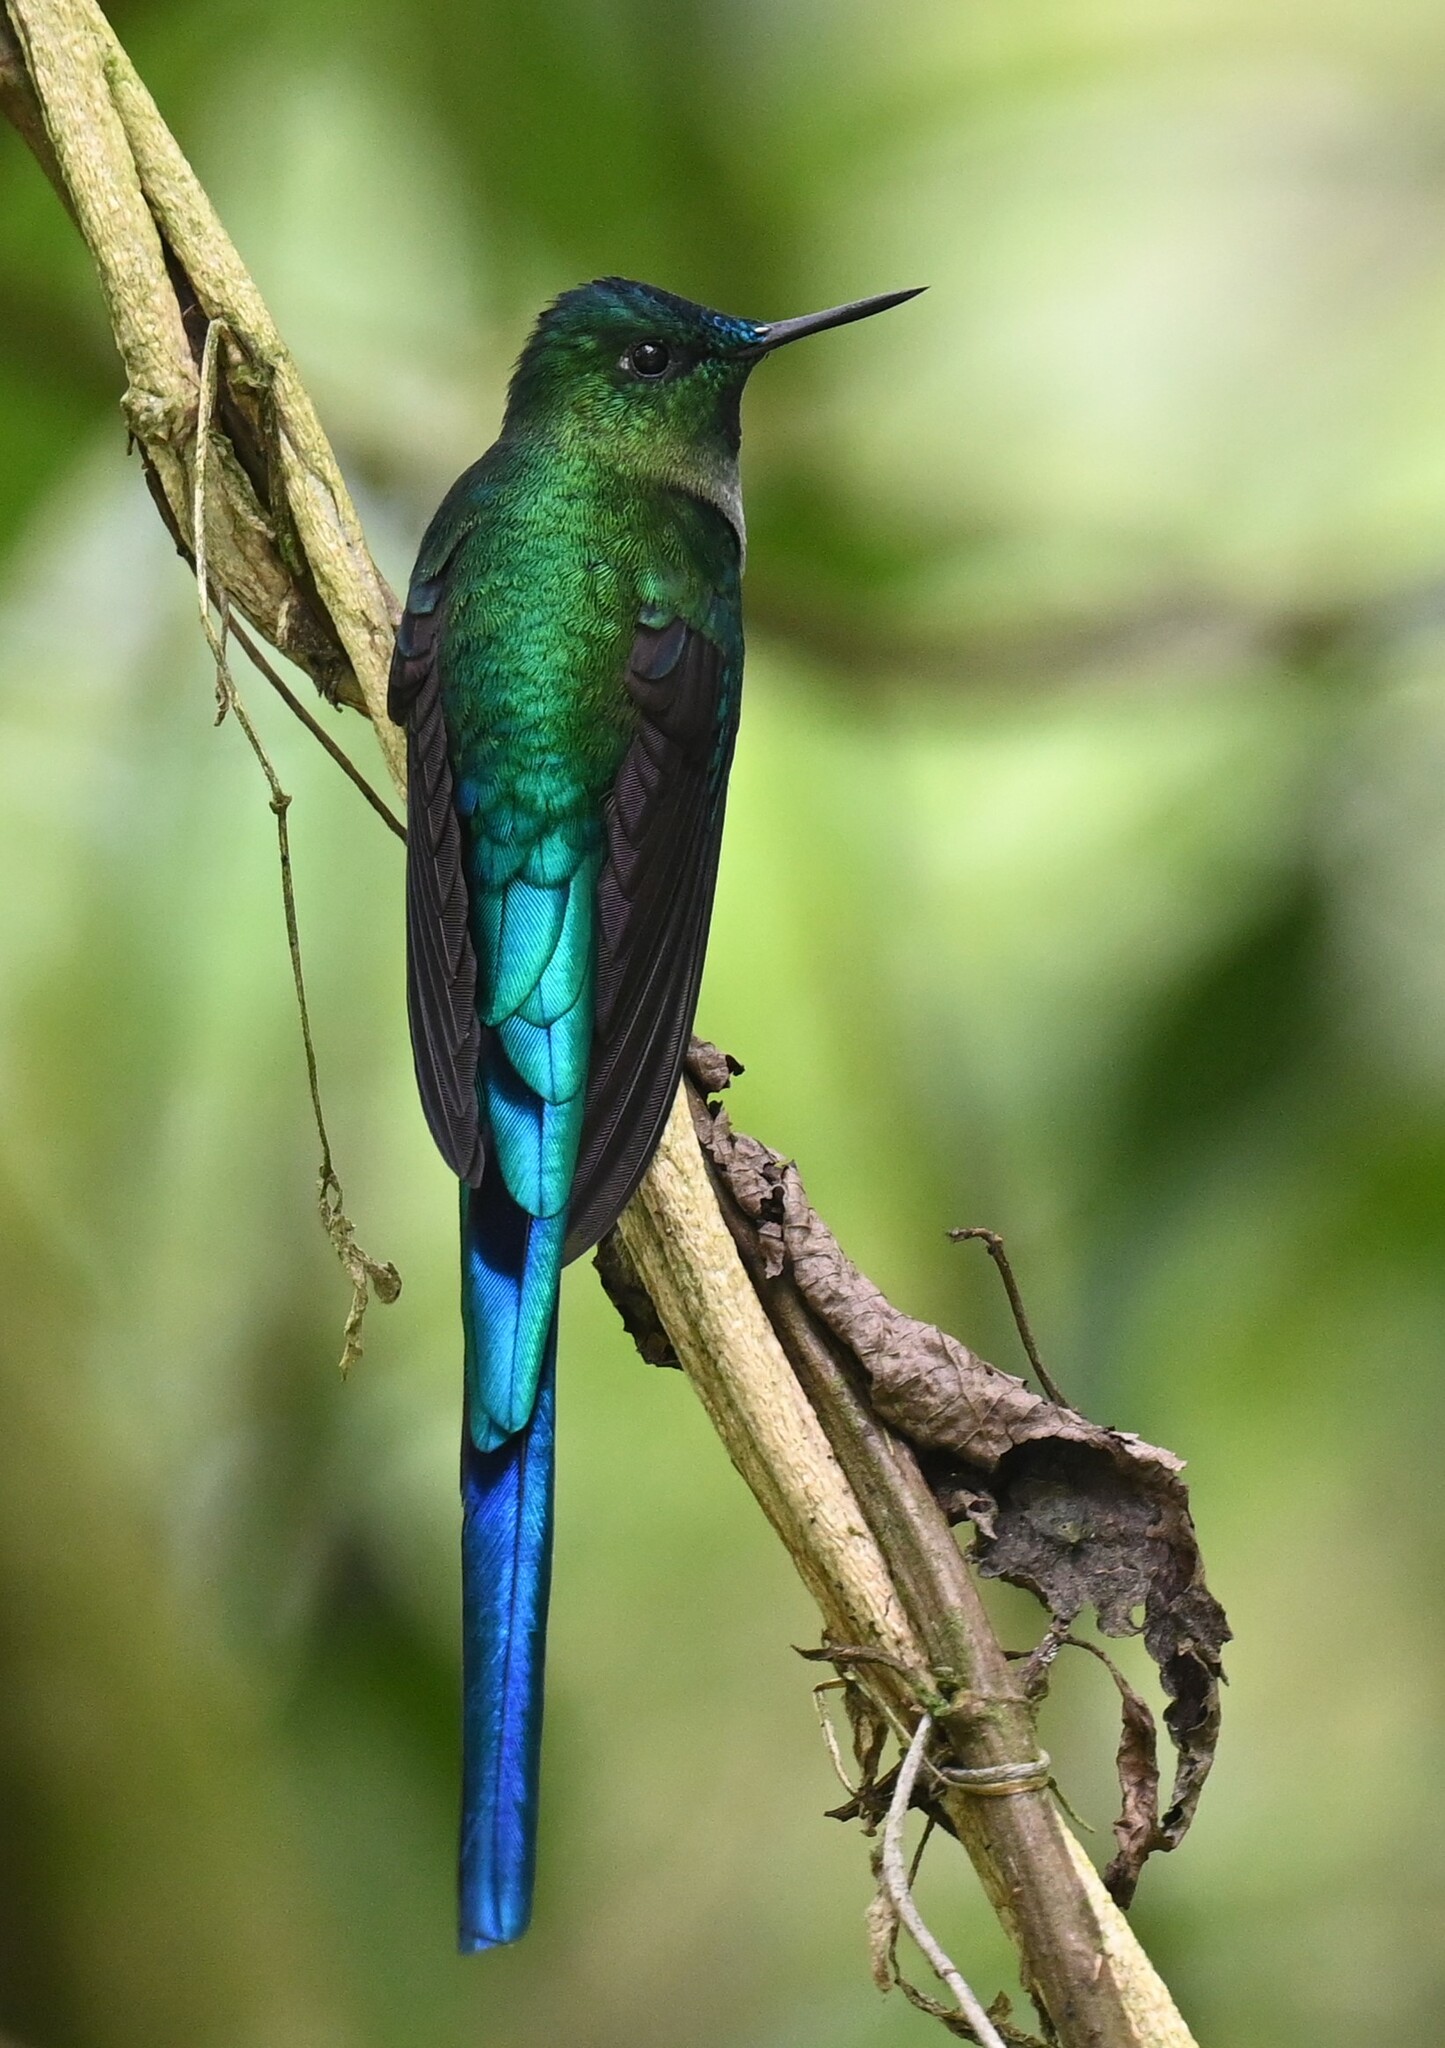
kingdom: Animalia
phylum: Chordata
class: Aves
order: Apodiformes
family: Trochilidae
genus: Aglaiocercus
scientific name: Aglaiocercus kingii
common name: Long-tailed sylph
